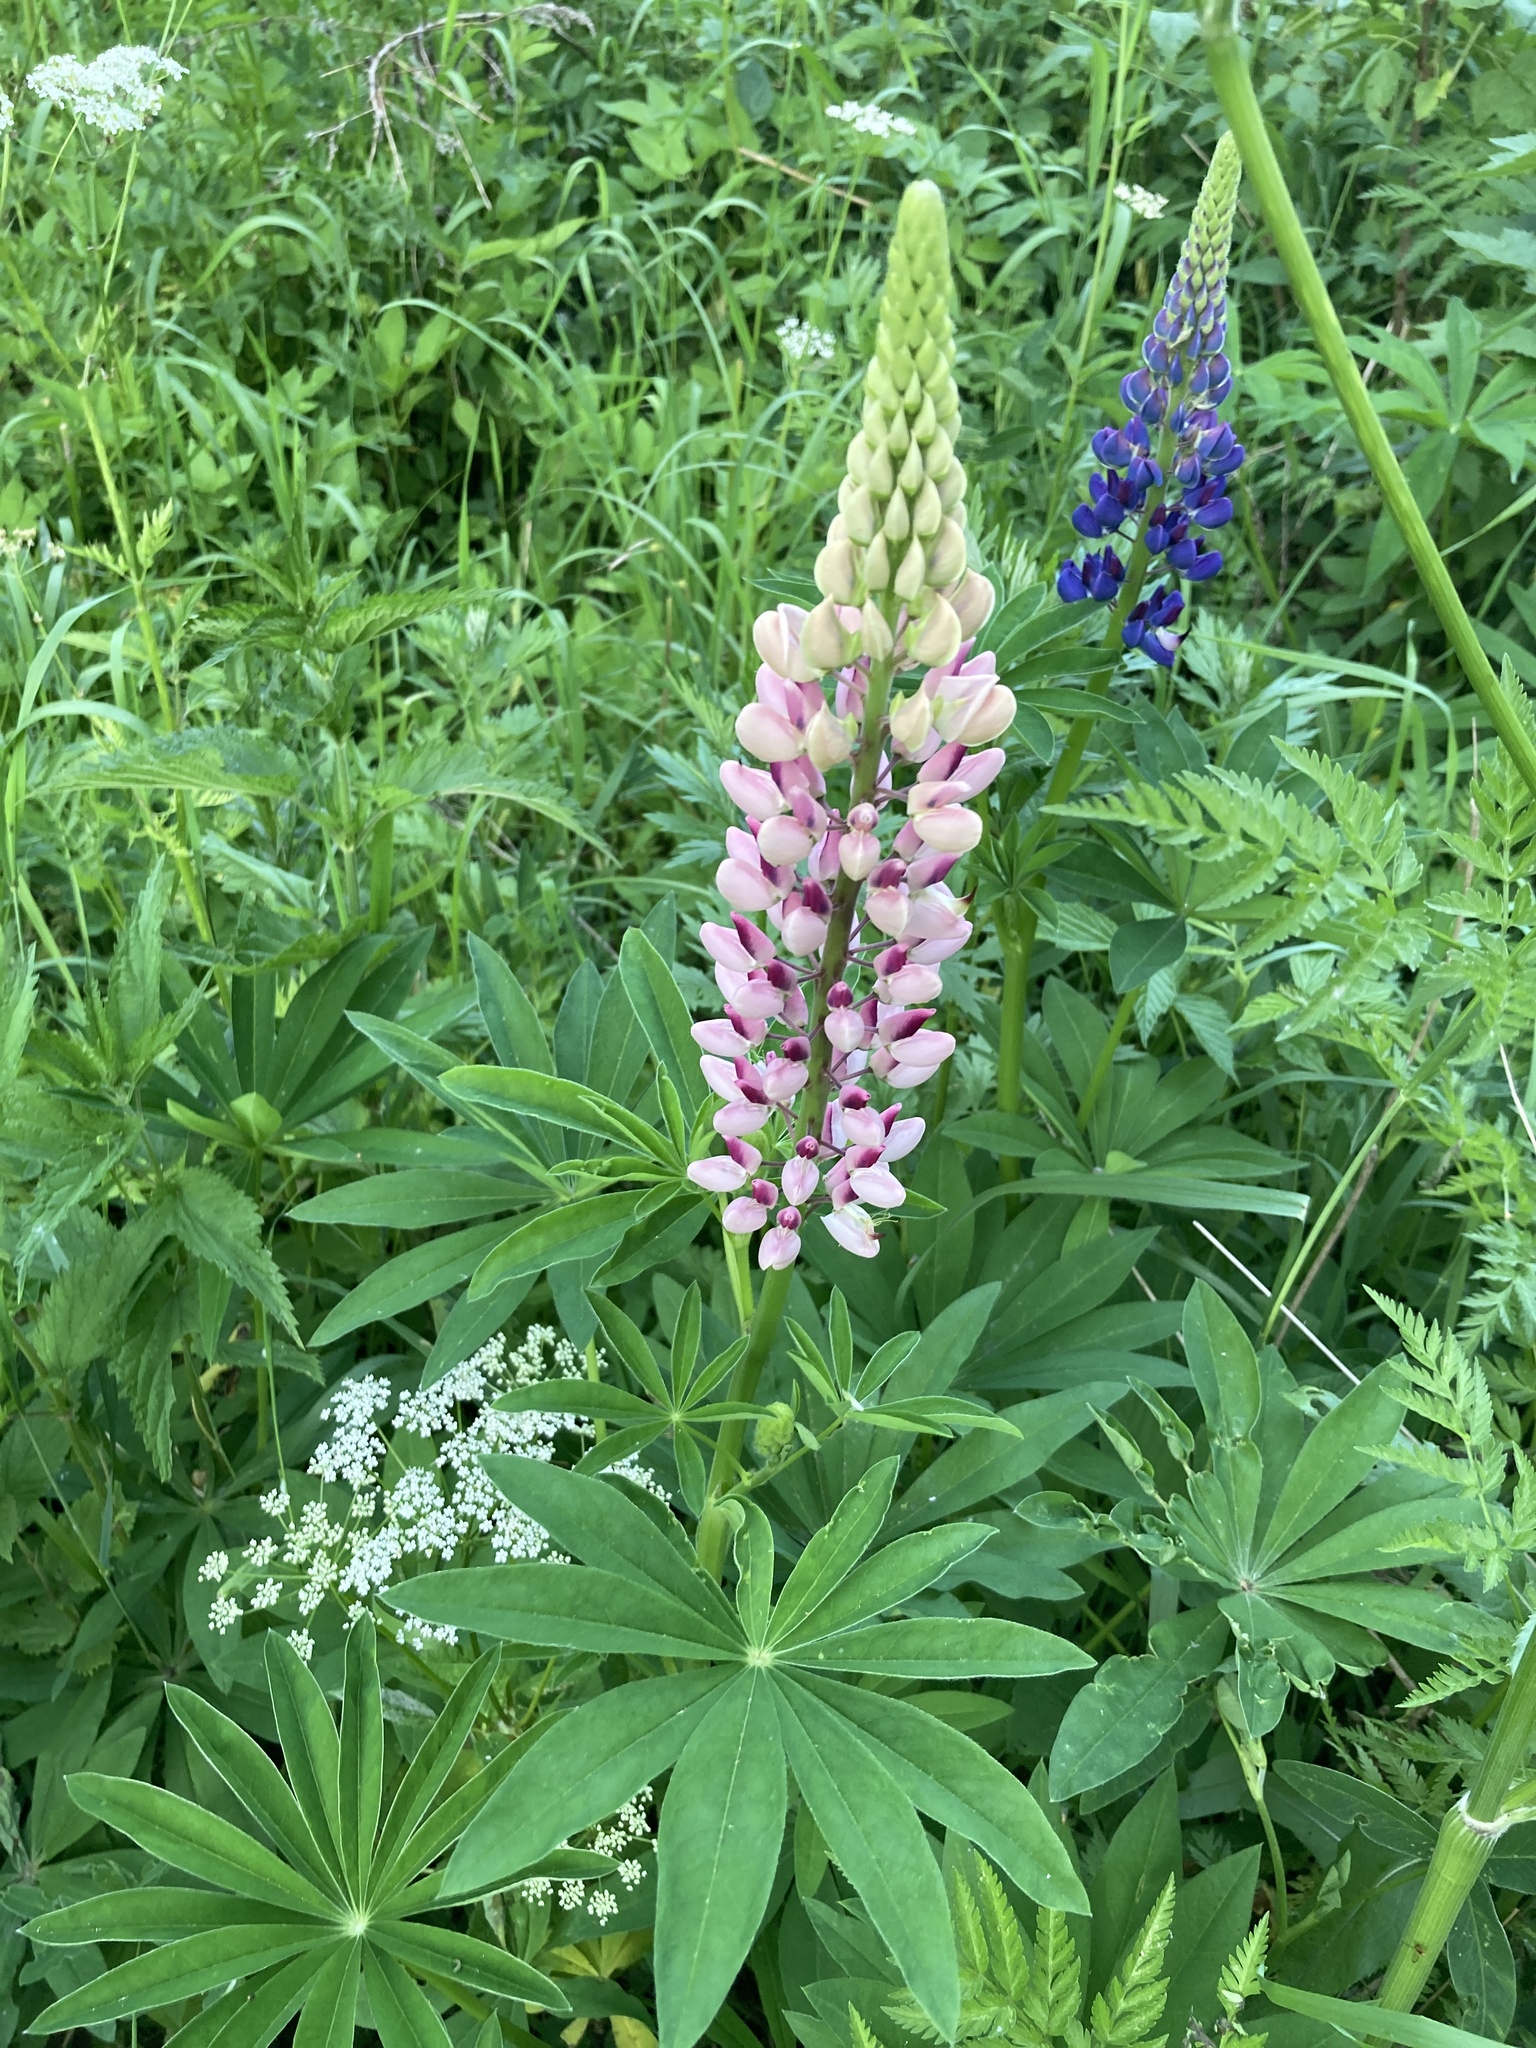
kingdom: Plantae
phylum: Tracheophyta
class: Magnoliopsida
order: Fabales
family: Fabaceae
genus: Lupinus
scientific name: Lupinus polyphyllus
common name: Garden lupin
